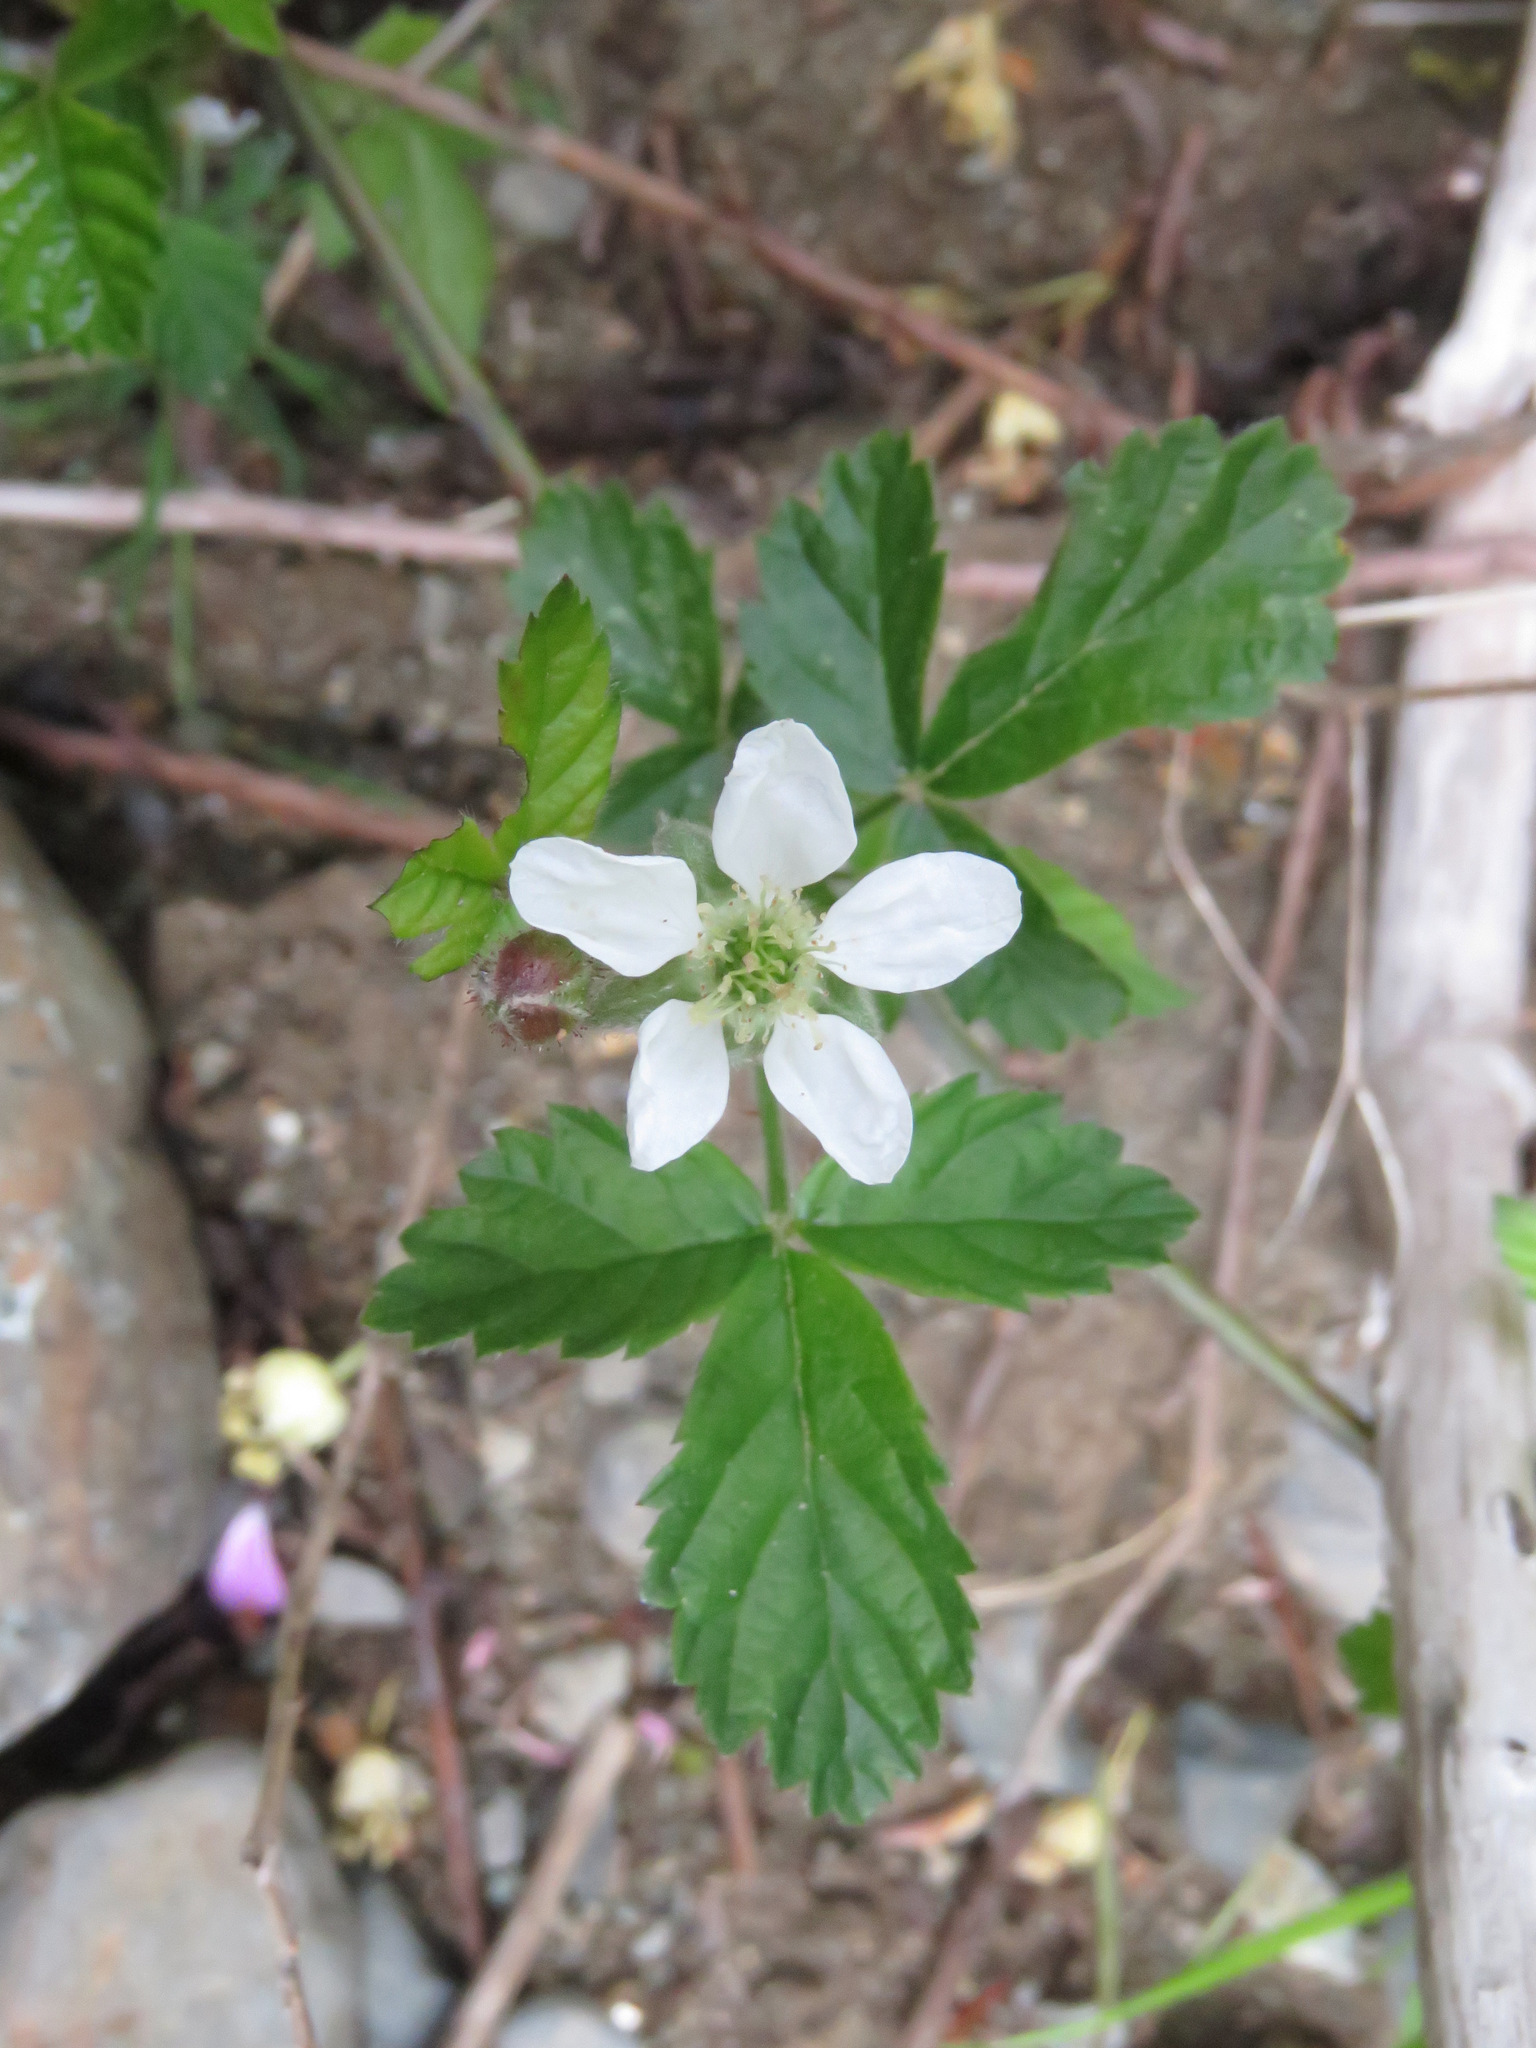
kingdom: Plantae
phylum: Tracheophyta
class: Magnoliopsida
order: Rosales
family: Rosaceae
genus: Rubus
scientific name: Rubus ursinus
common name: Pacific blackberry
